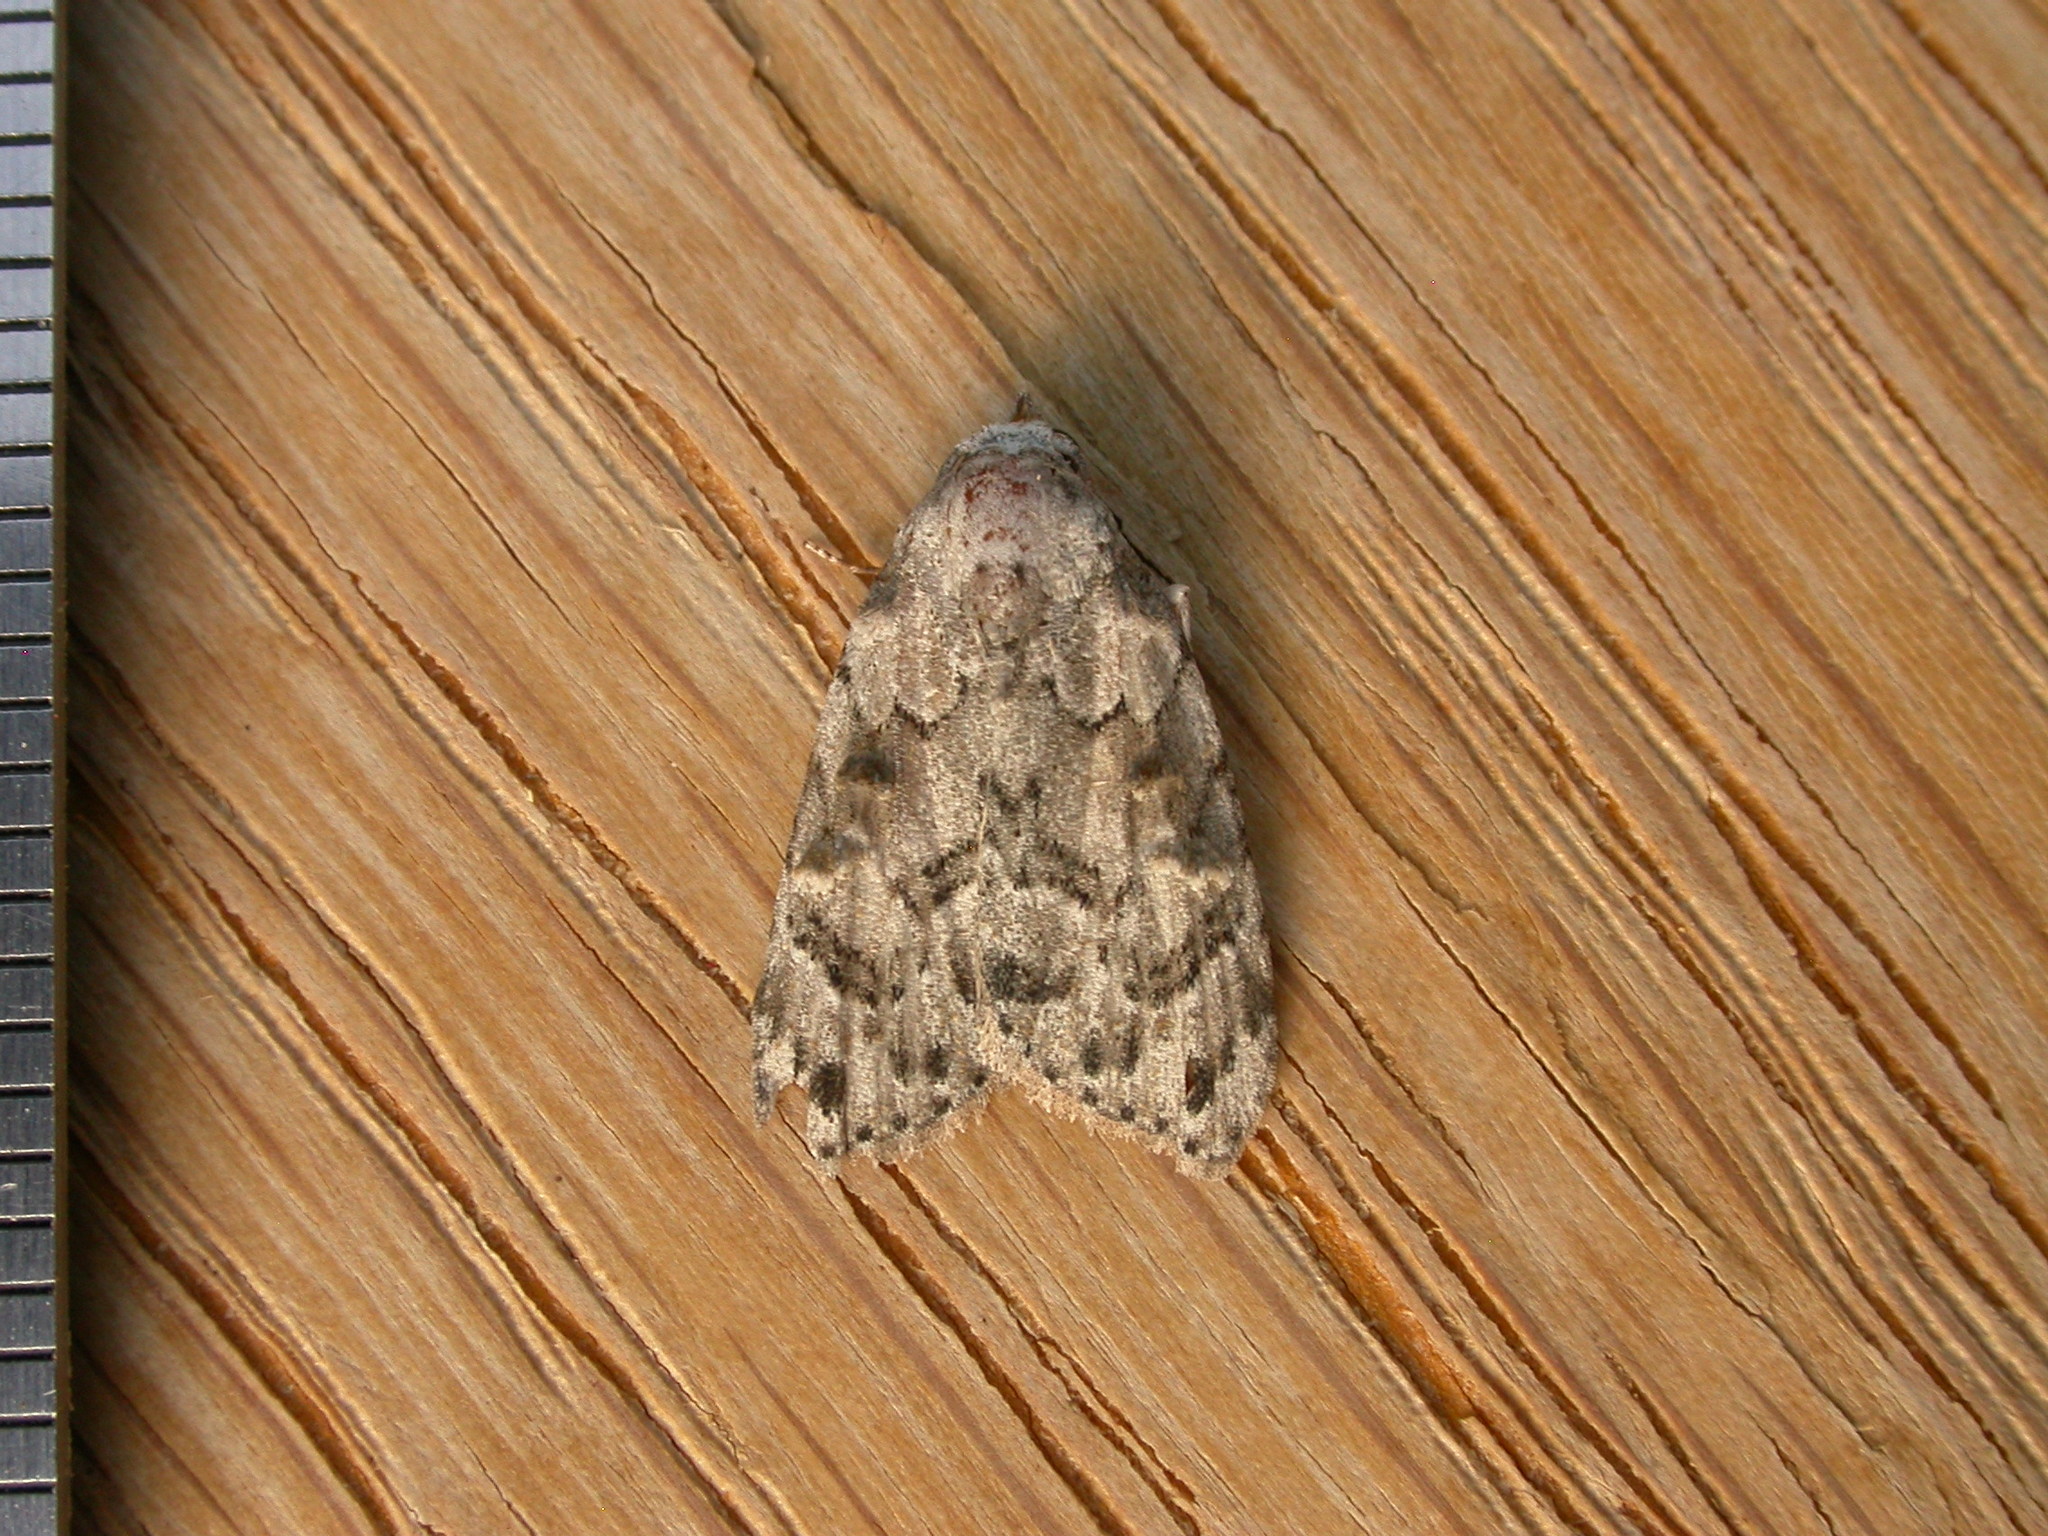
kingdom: Animalia
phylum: Arthropoda
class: Insecta
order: Lepidoptera
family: Nolidae
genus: Nola
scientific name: Nola epicentra
